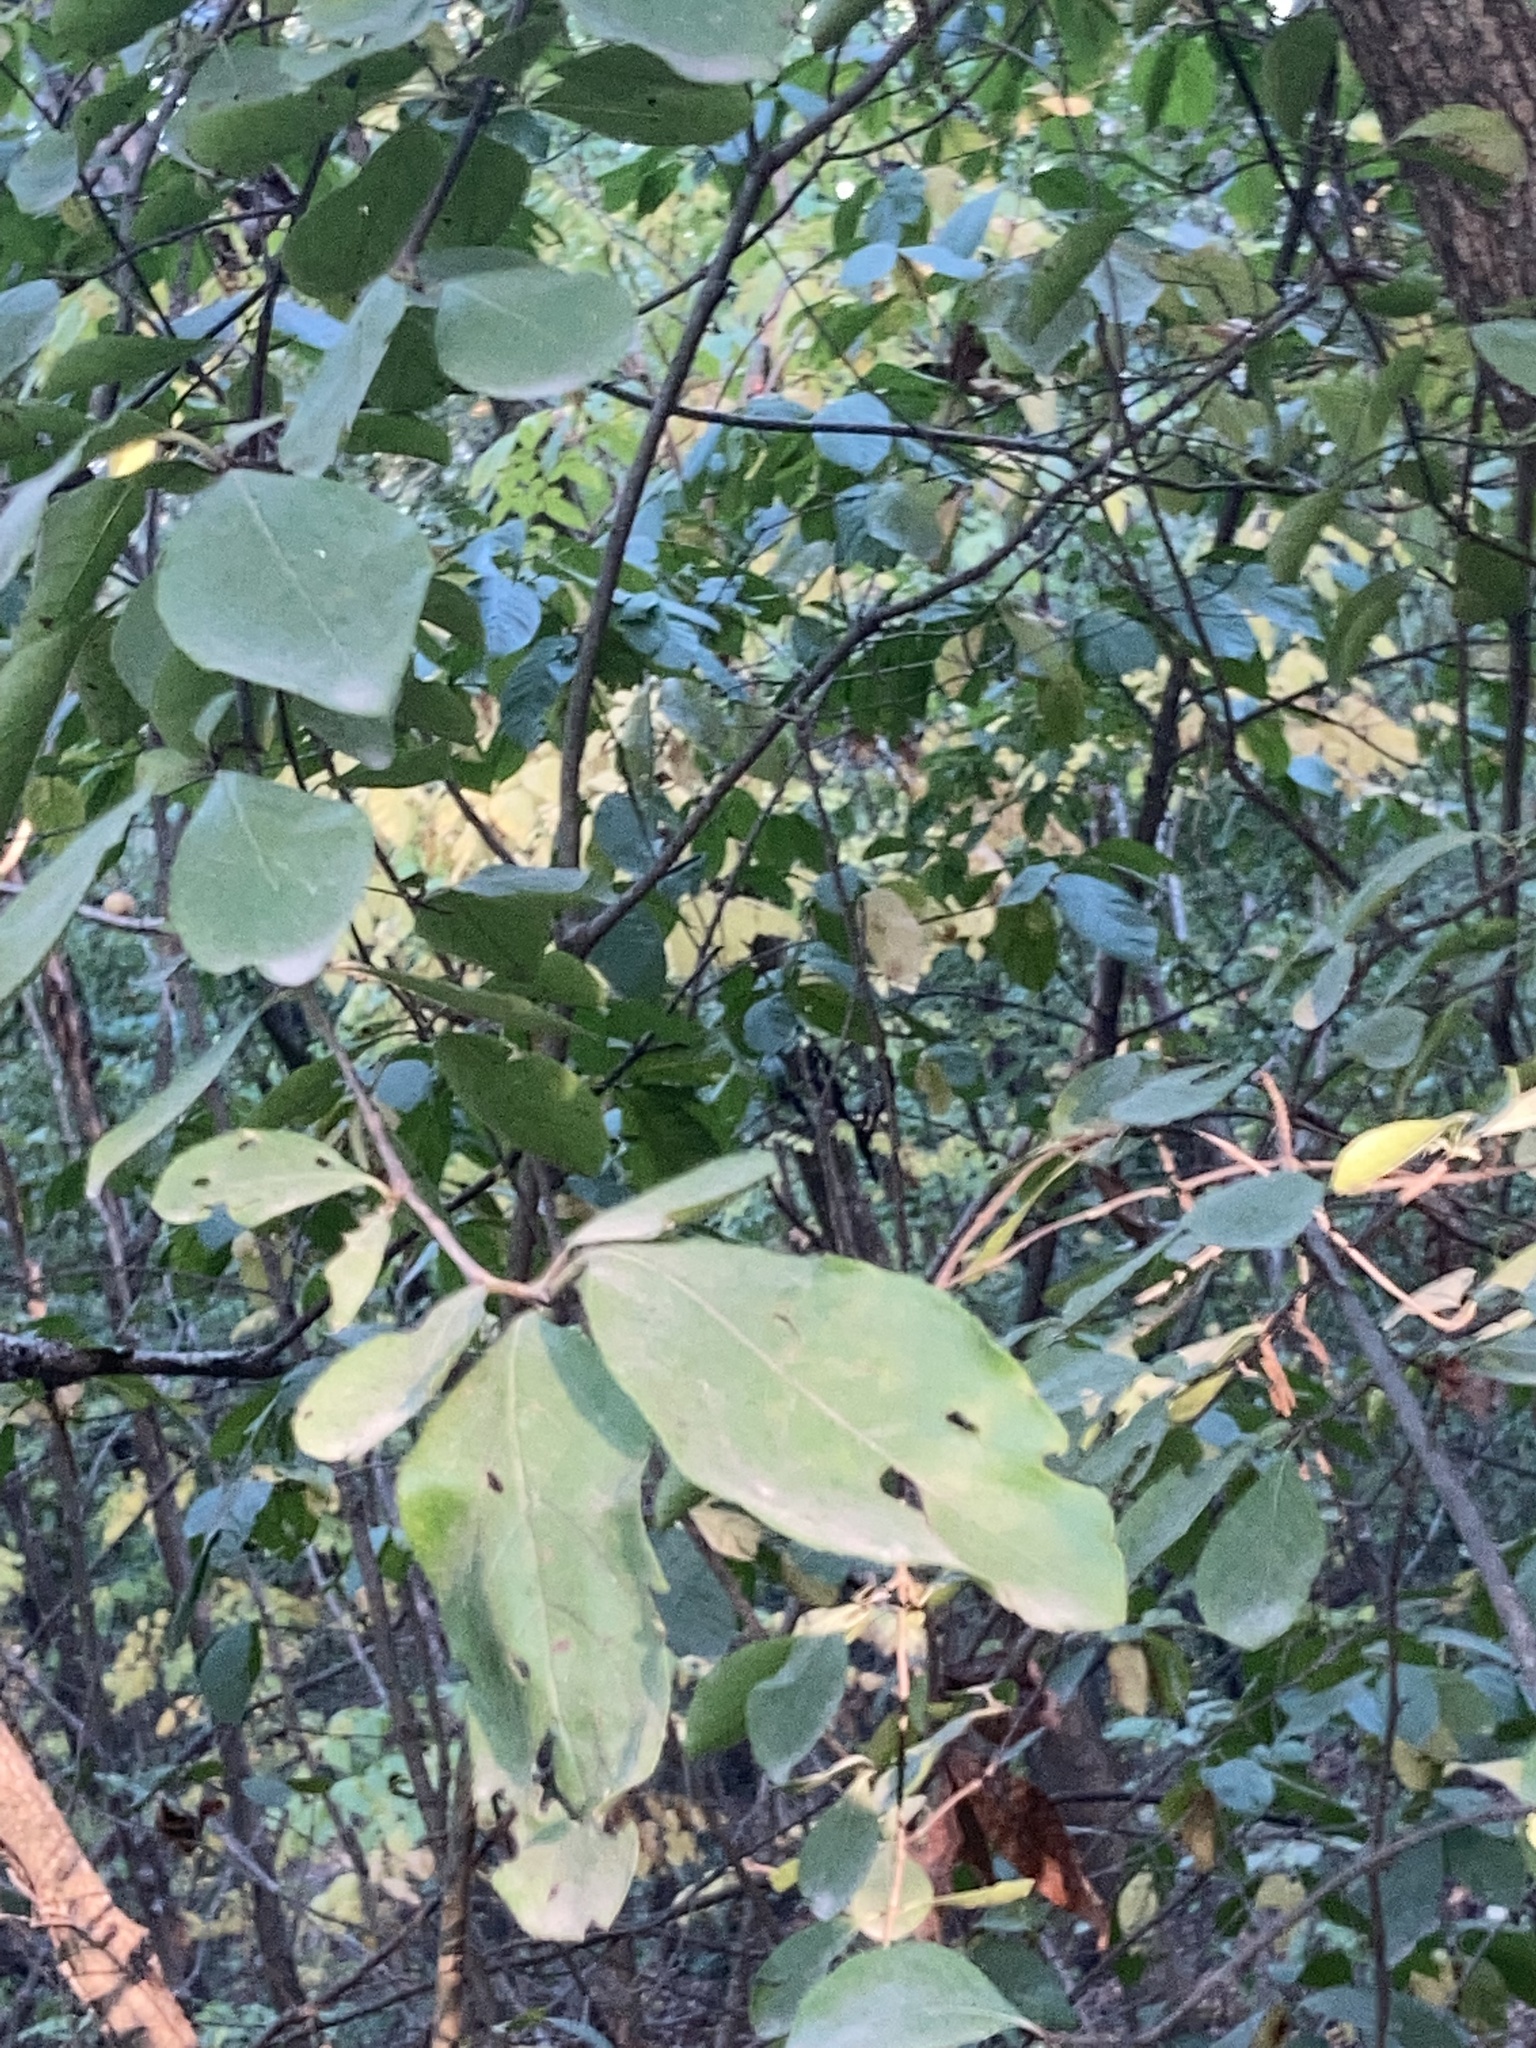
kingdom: Plantae
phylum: Tracheophyta
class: Magnoliopsida
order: Dipsacales
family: Viburnaceae
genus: Viburnum
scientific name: Viburnum rufidulum
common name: Blue haw
